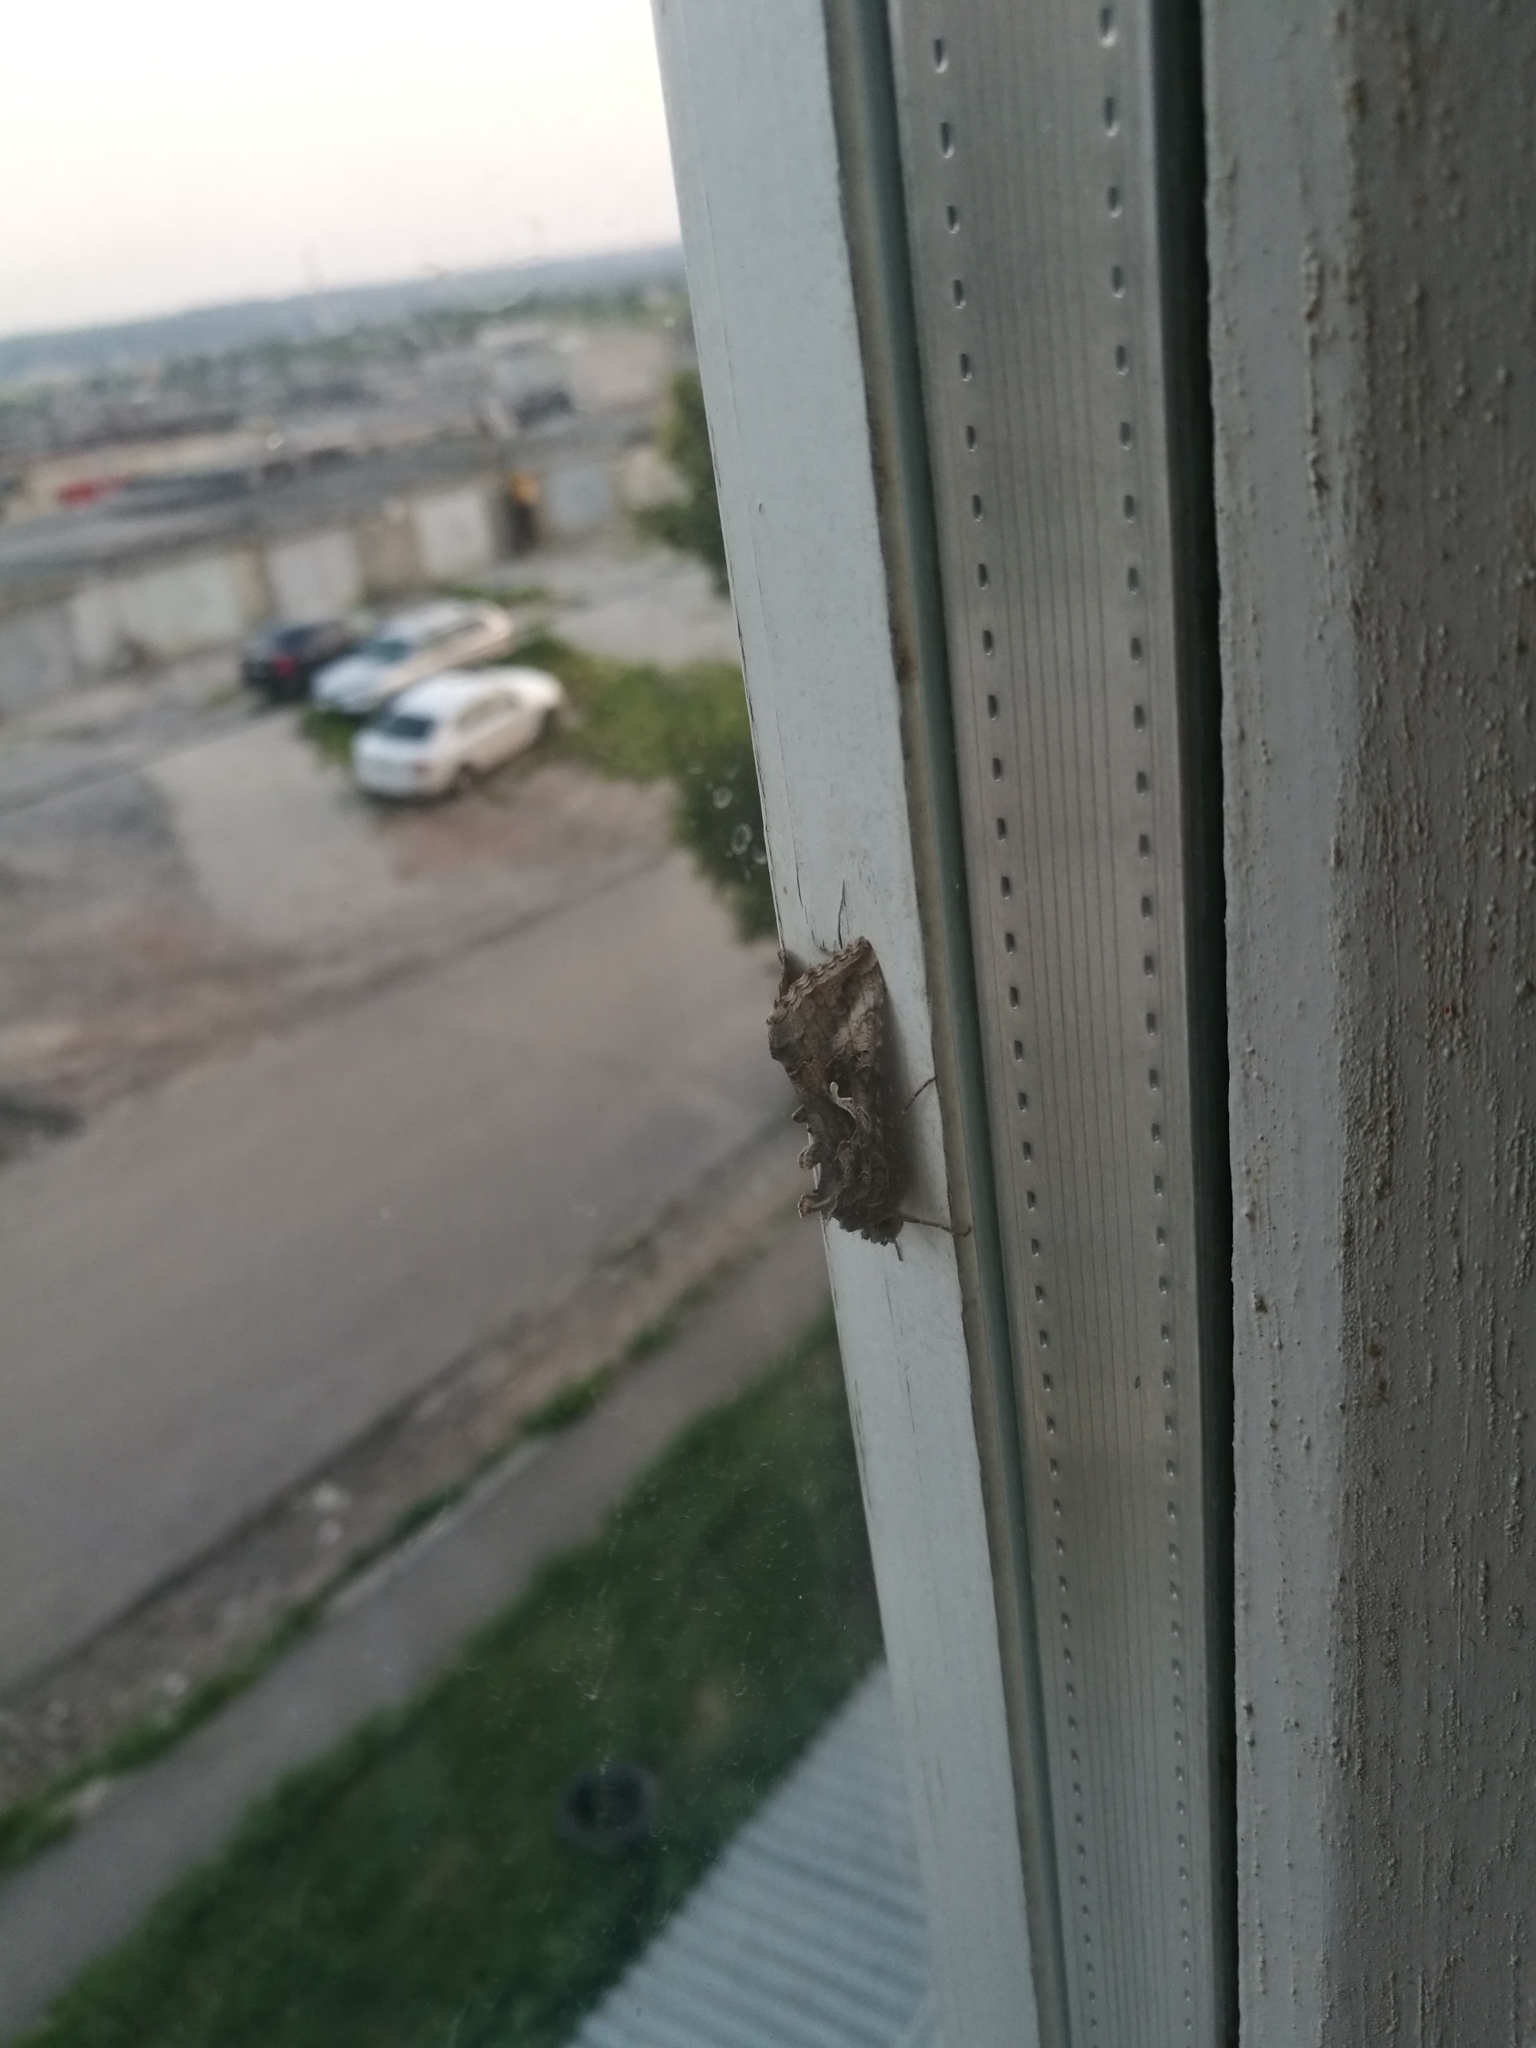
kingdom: Animalia
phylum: Arthropoda
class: Insecta
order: Lepidoptera
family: Noctuidae
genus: Autographa
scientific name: Autographa gamma
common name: Silver y
